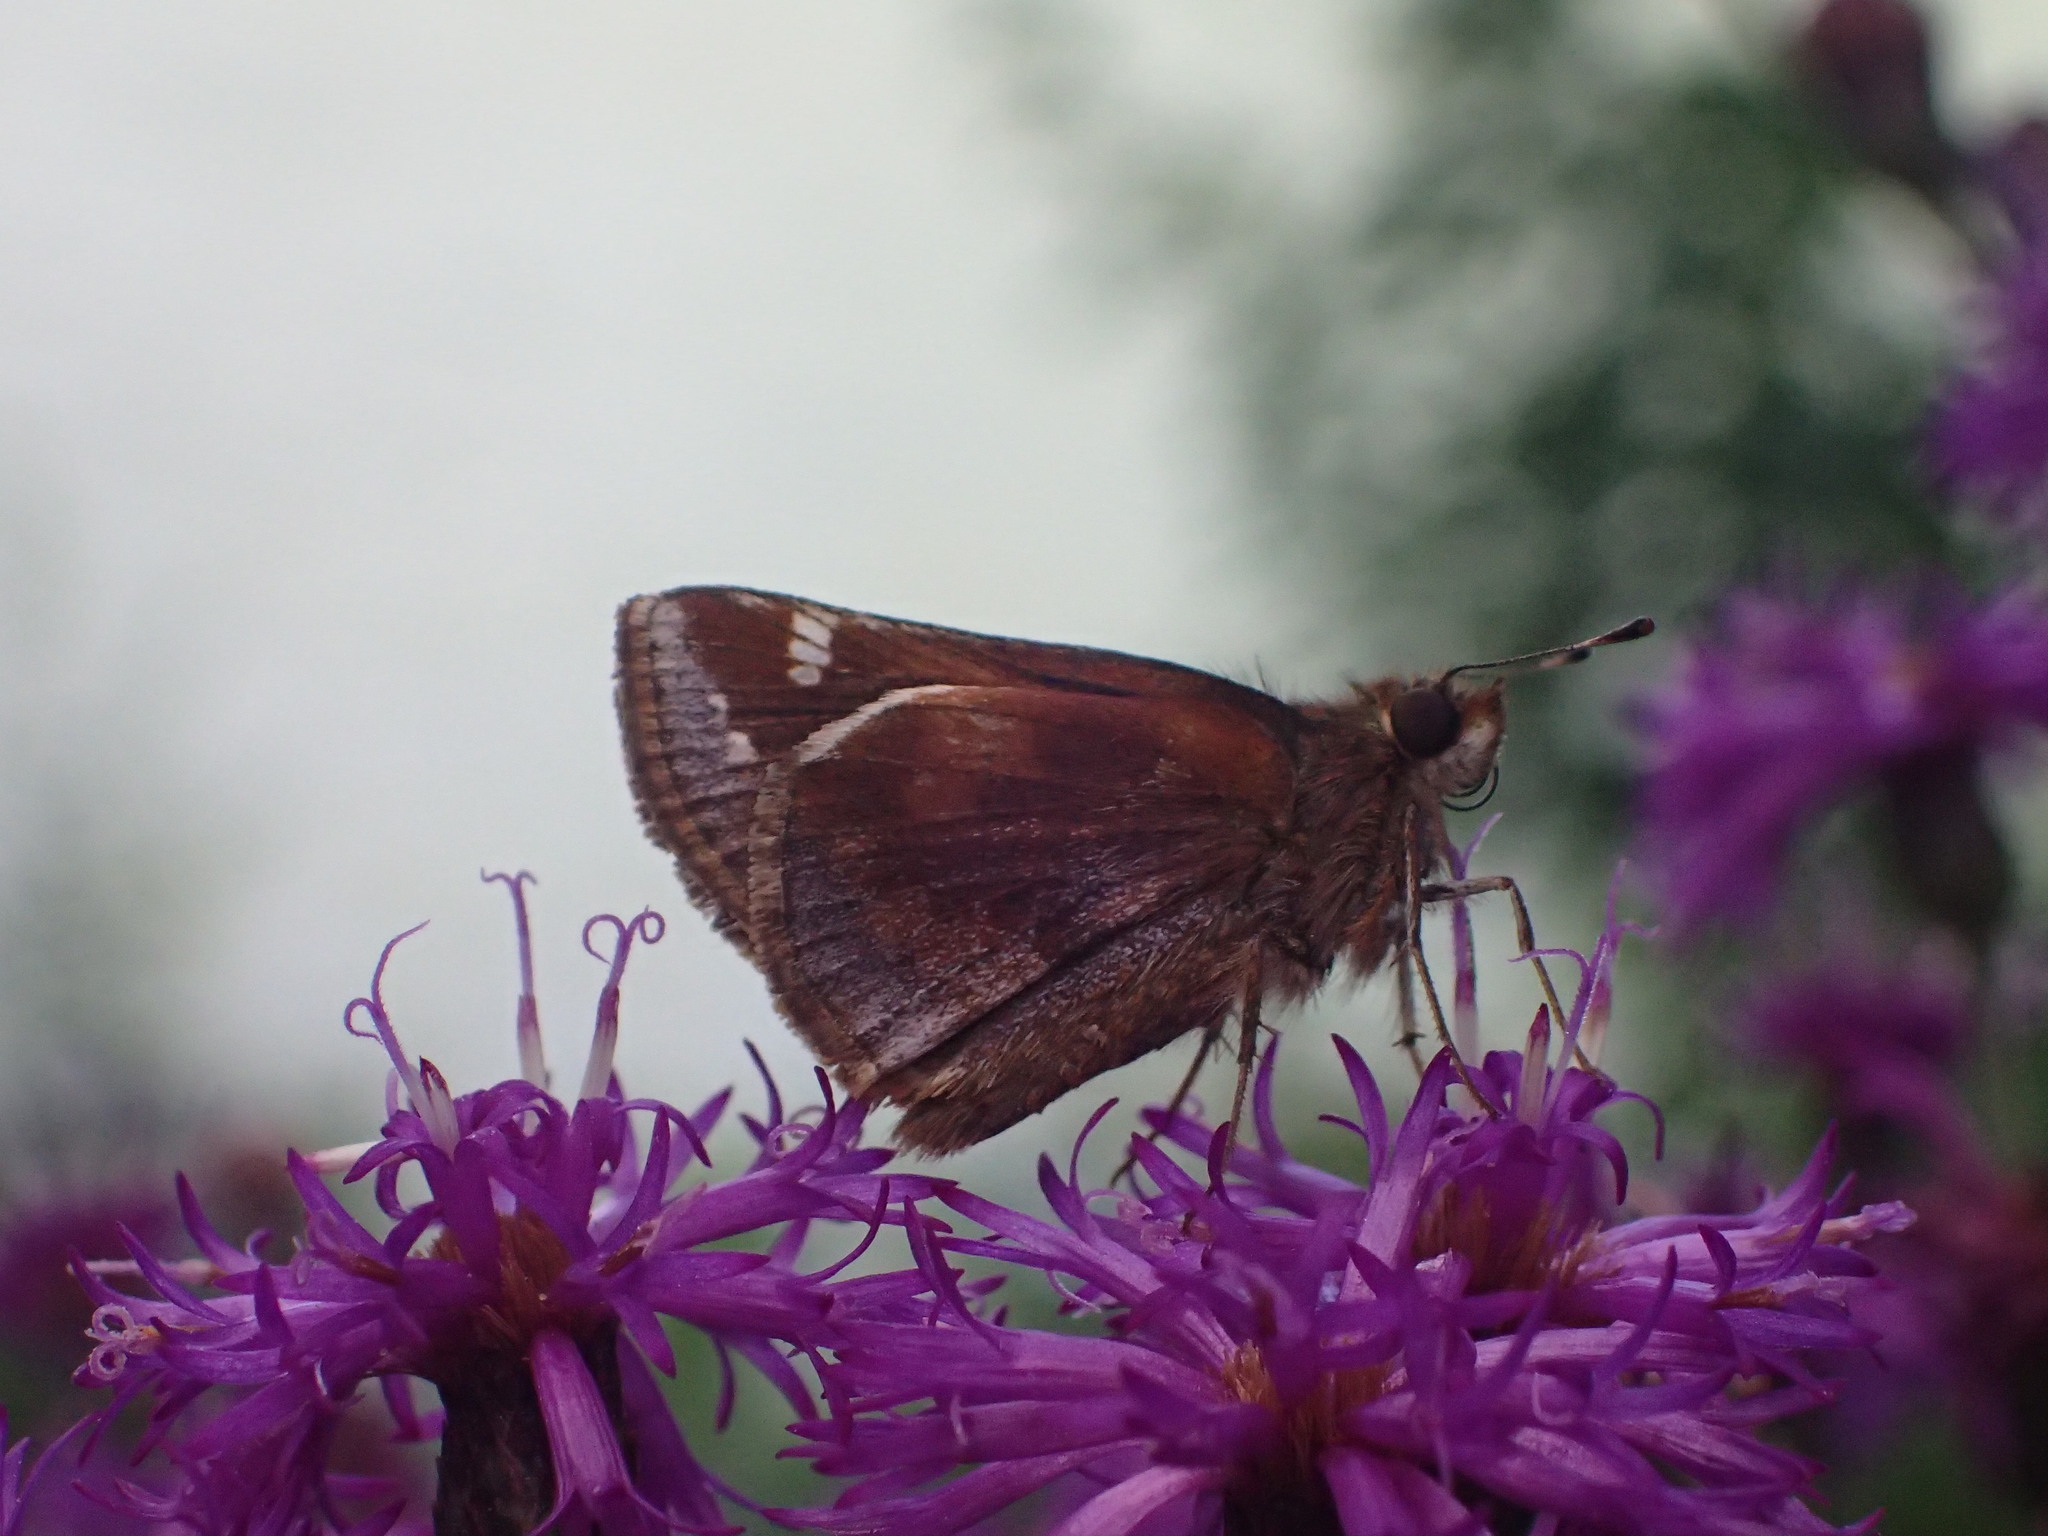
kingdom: Animalia
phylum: Arthropoda
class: Insecta
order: Lepidoptera
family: Hesperiidae
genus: Lon
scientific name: Lon zabulon
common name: Zabulon skipper
